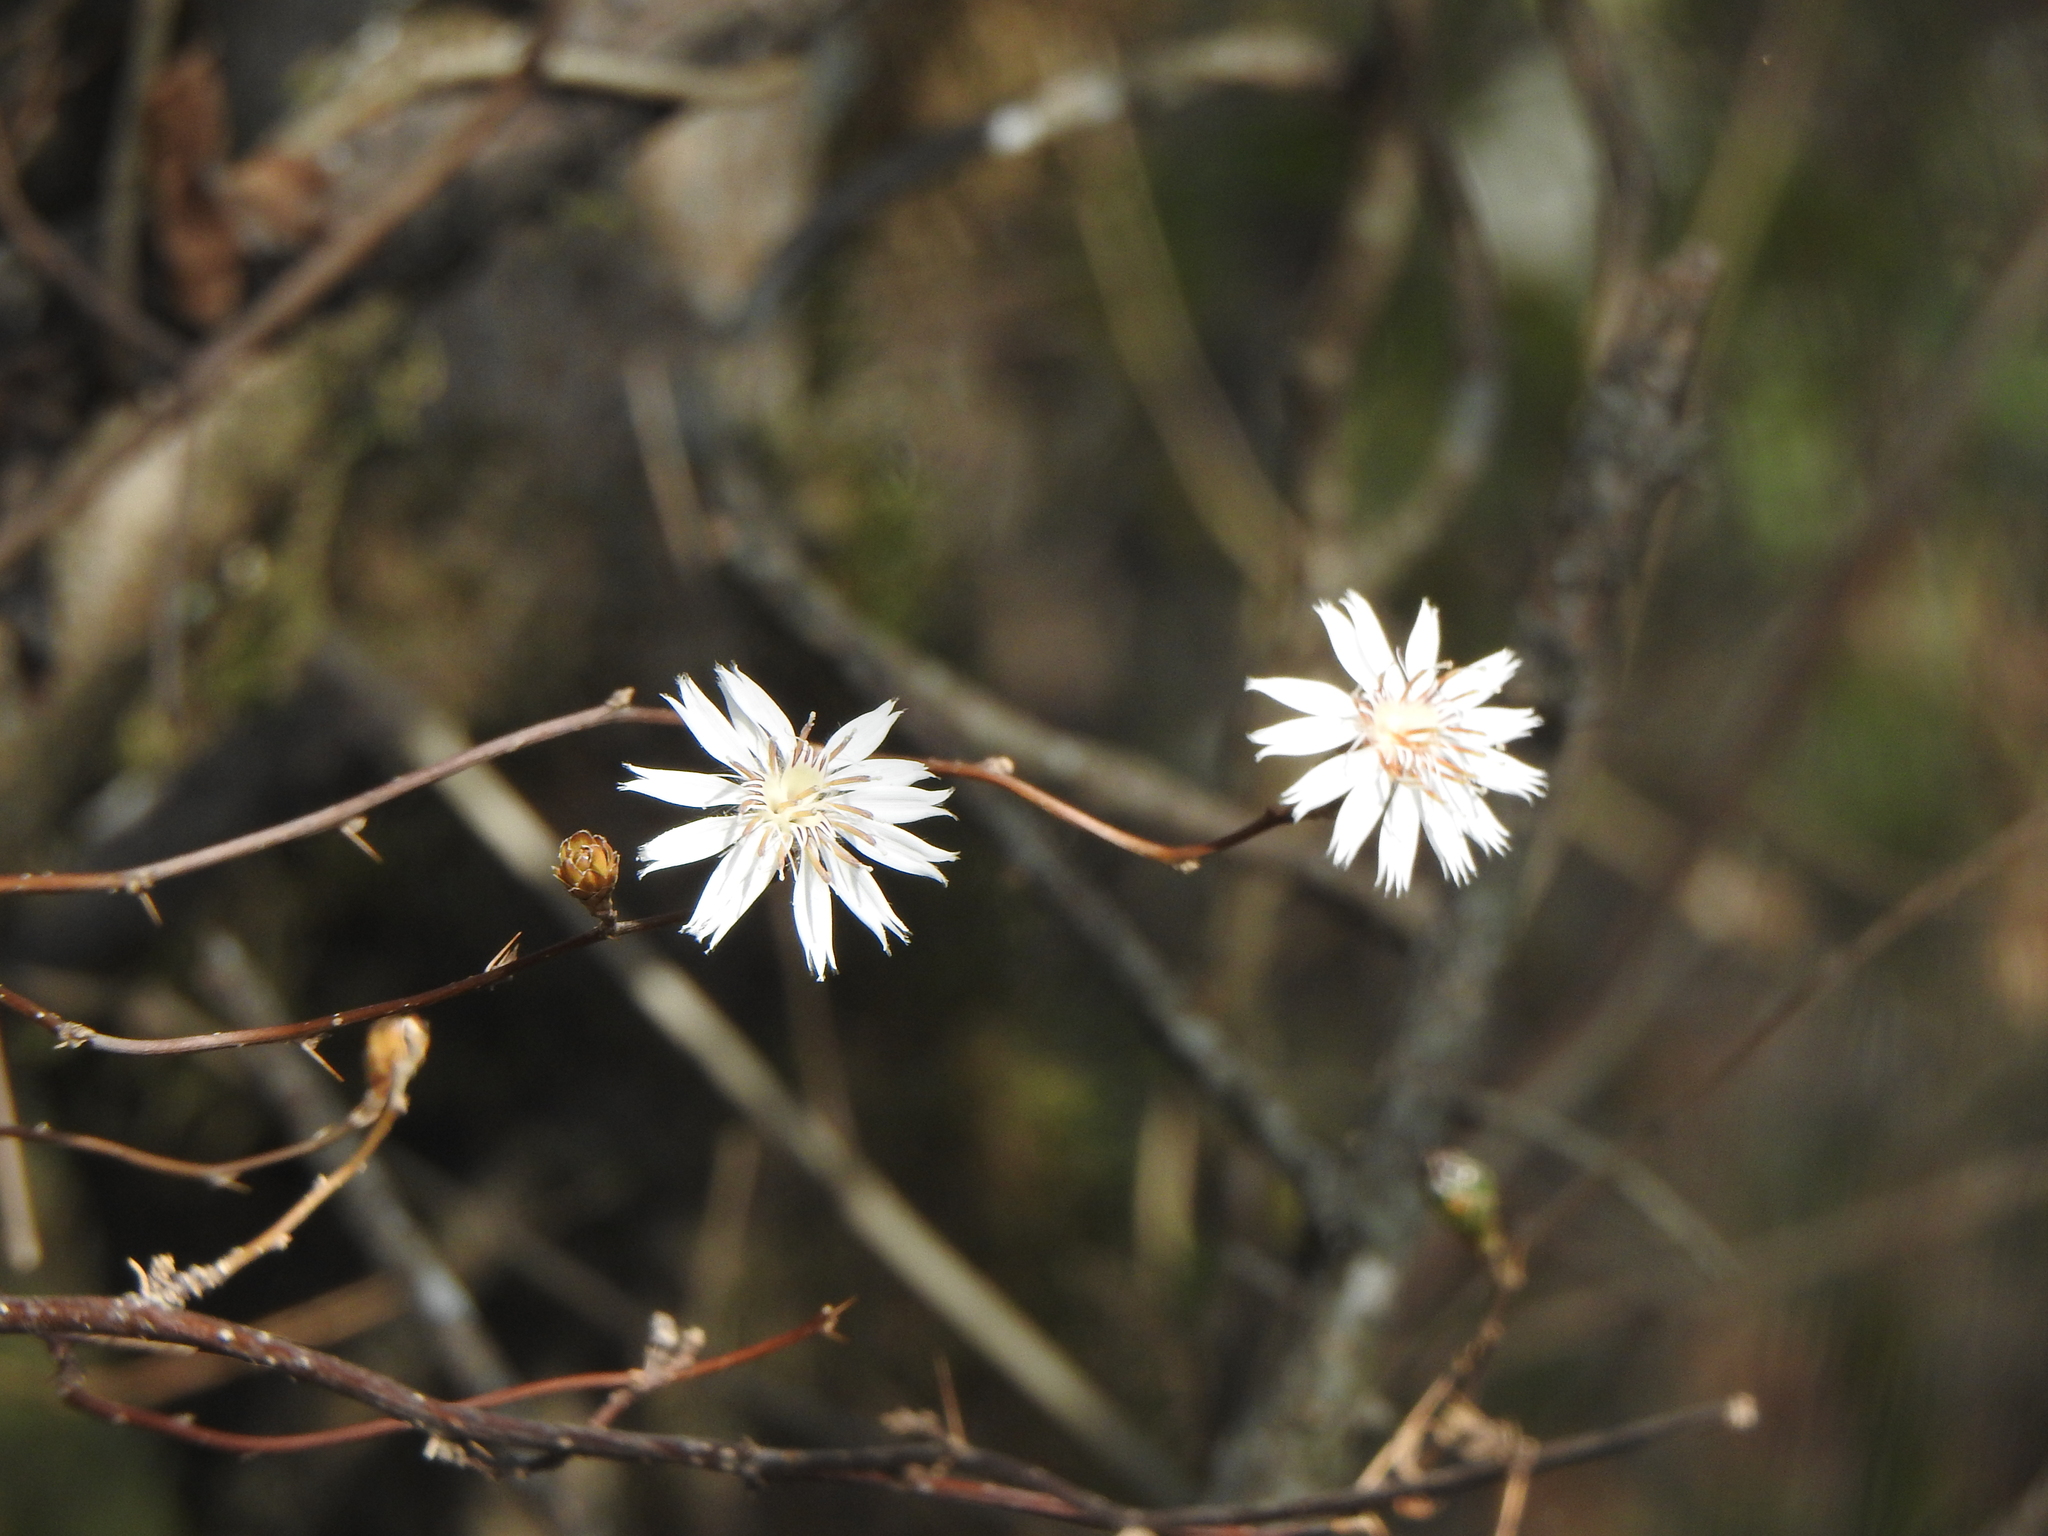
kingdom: Plantae
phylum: Tracheophyta
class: Magnoliopsida
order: Asterales
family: Asteraceae
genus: Barnadesia
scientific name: Barnadesia odorata
